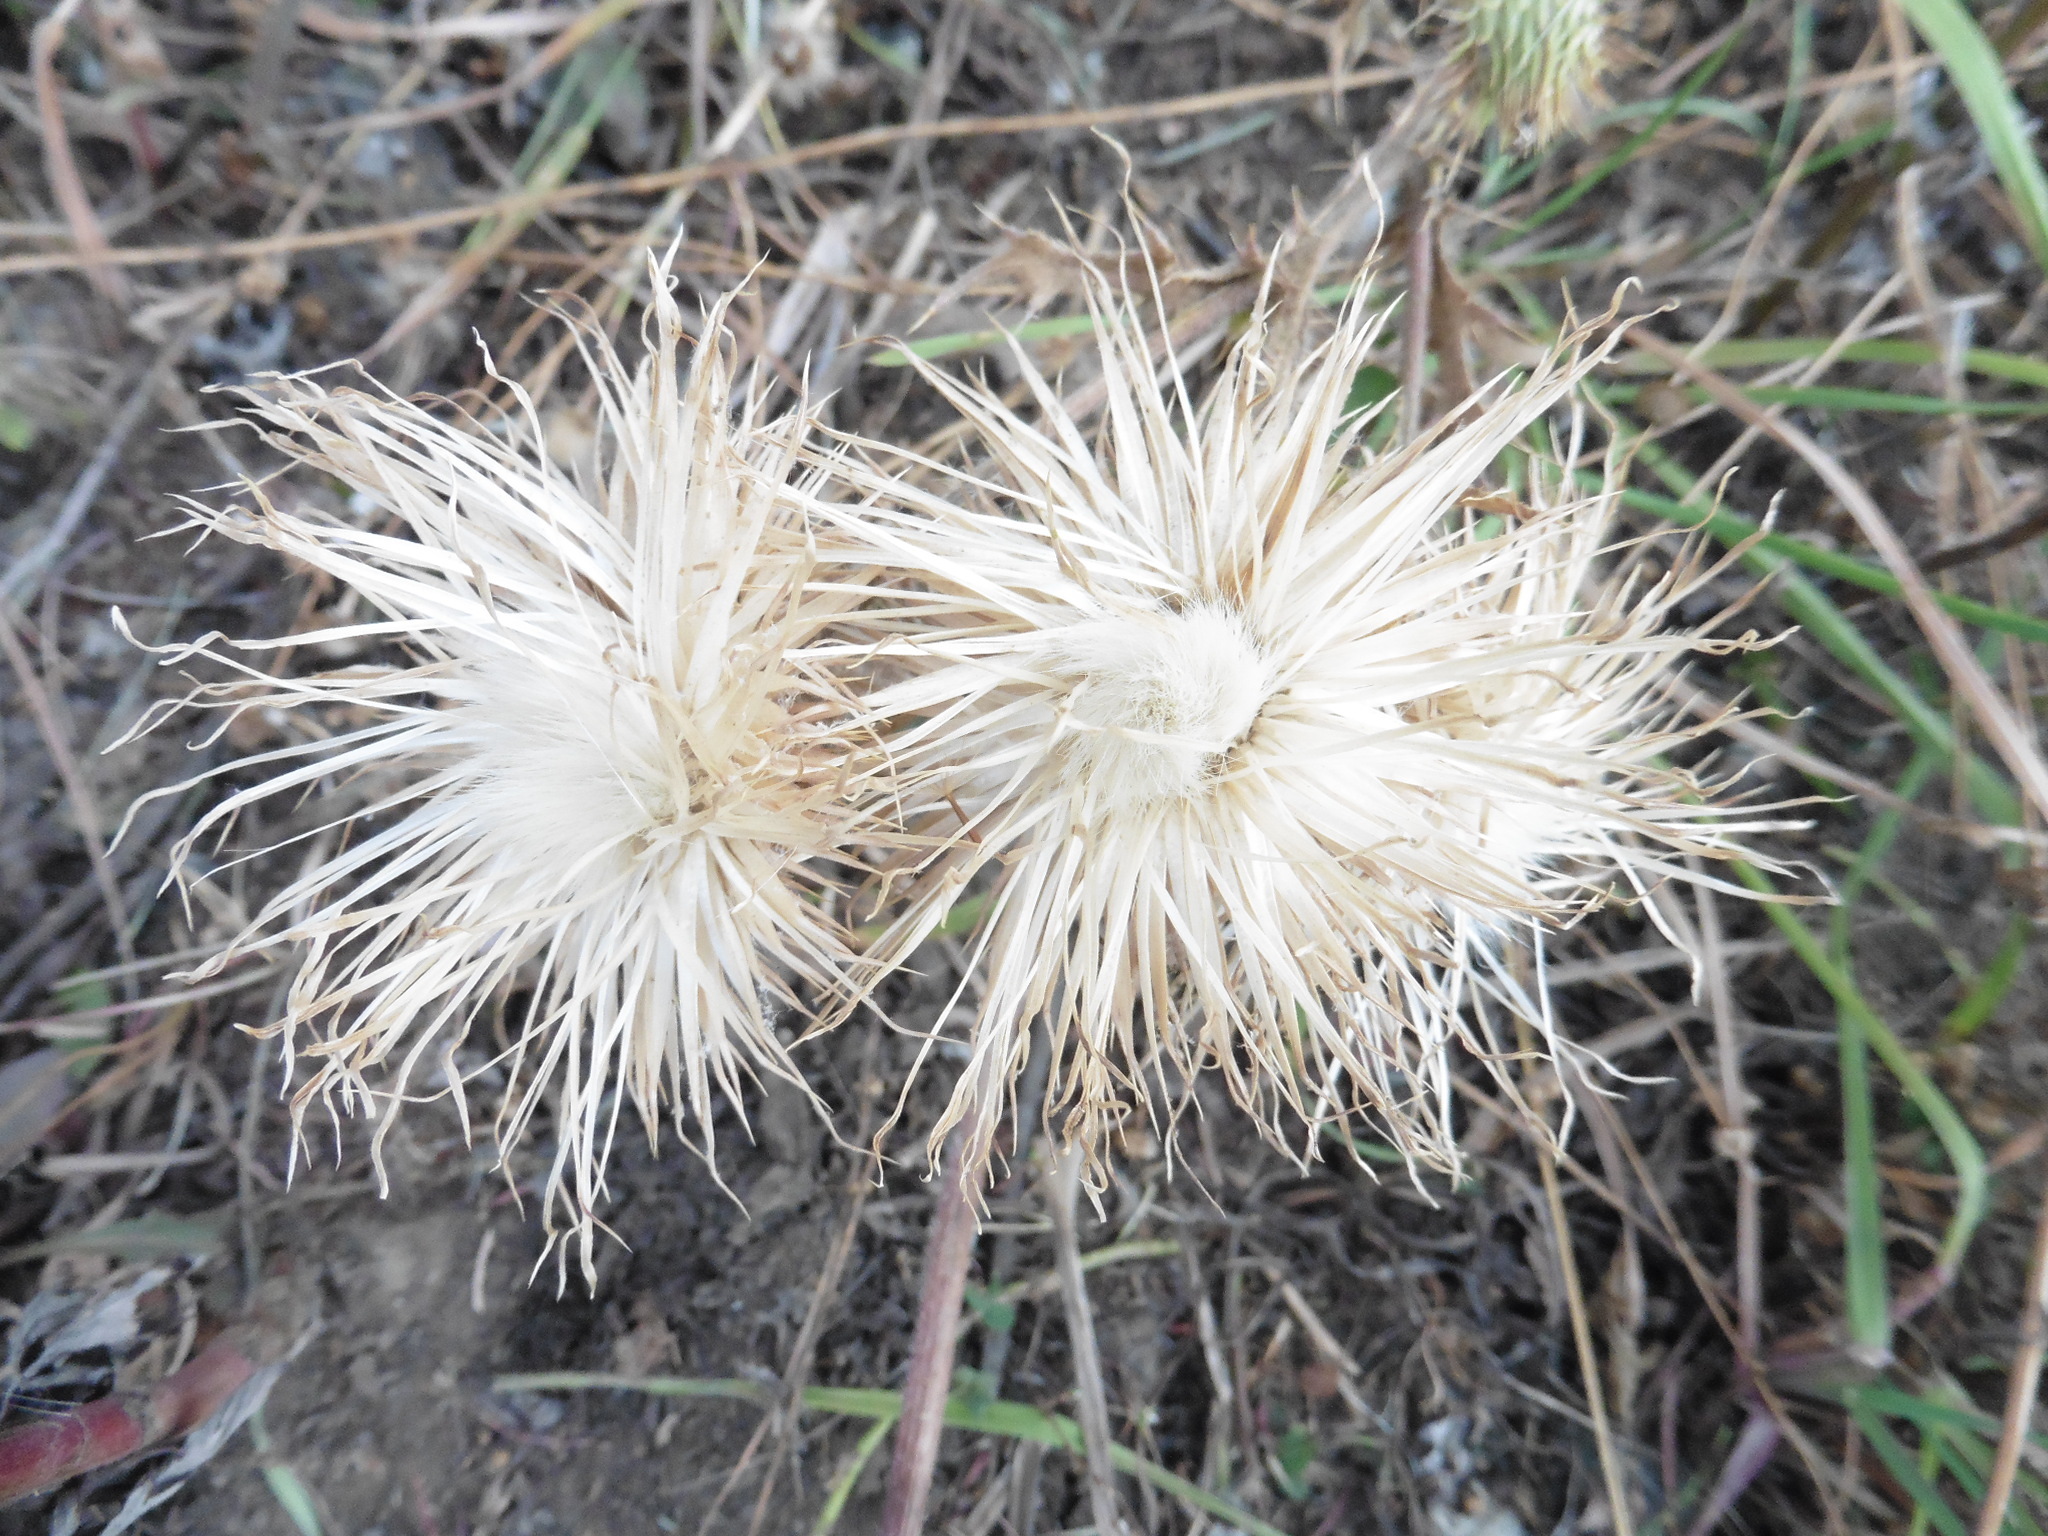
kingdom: Plantae
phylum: Tracheophyta
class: Magnoliopsida
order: Asterales
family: Asteraceae
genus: Cirsium
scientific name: Cirsium vulgare
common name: Bull thistle
